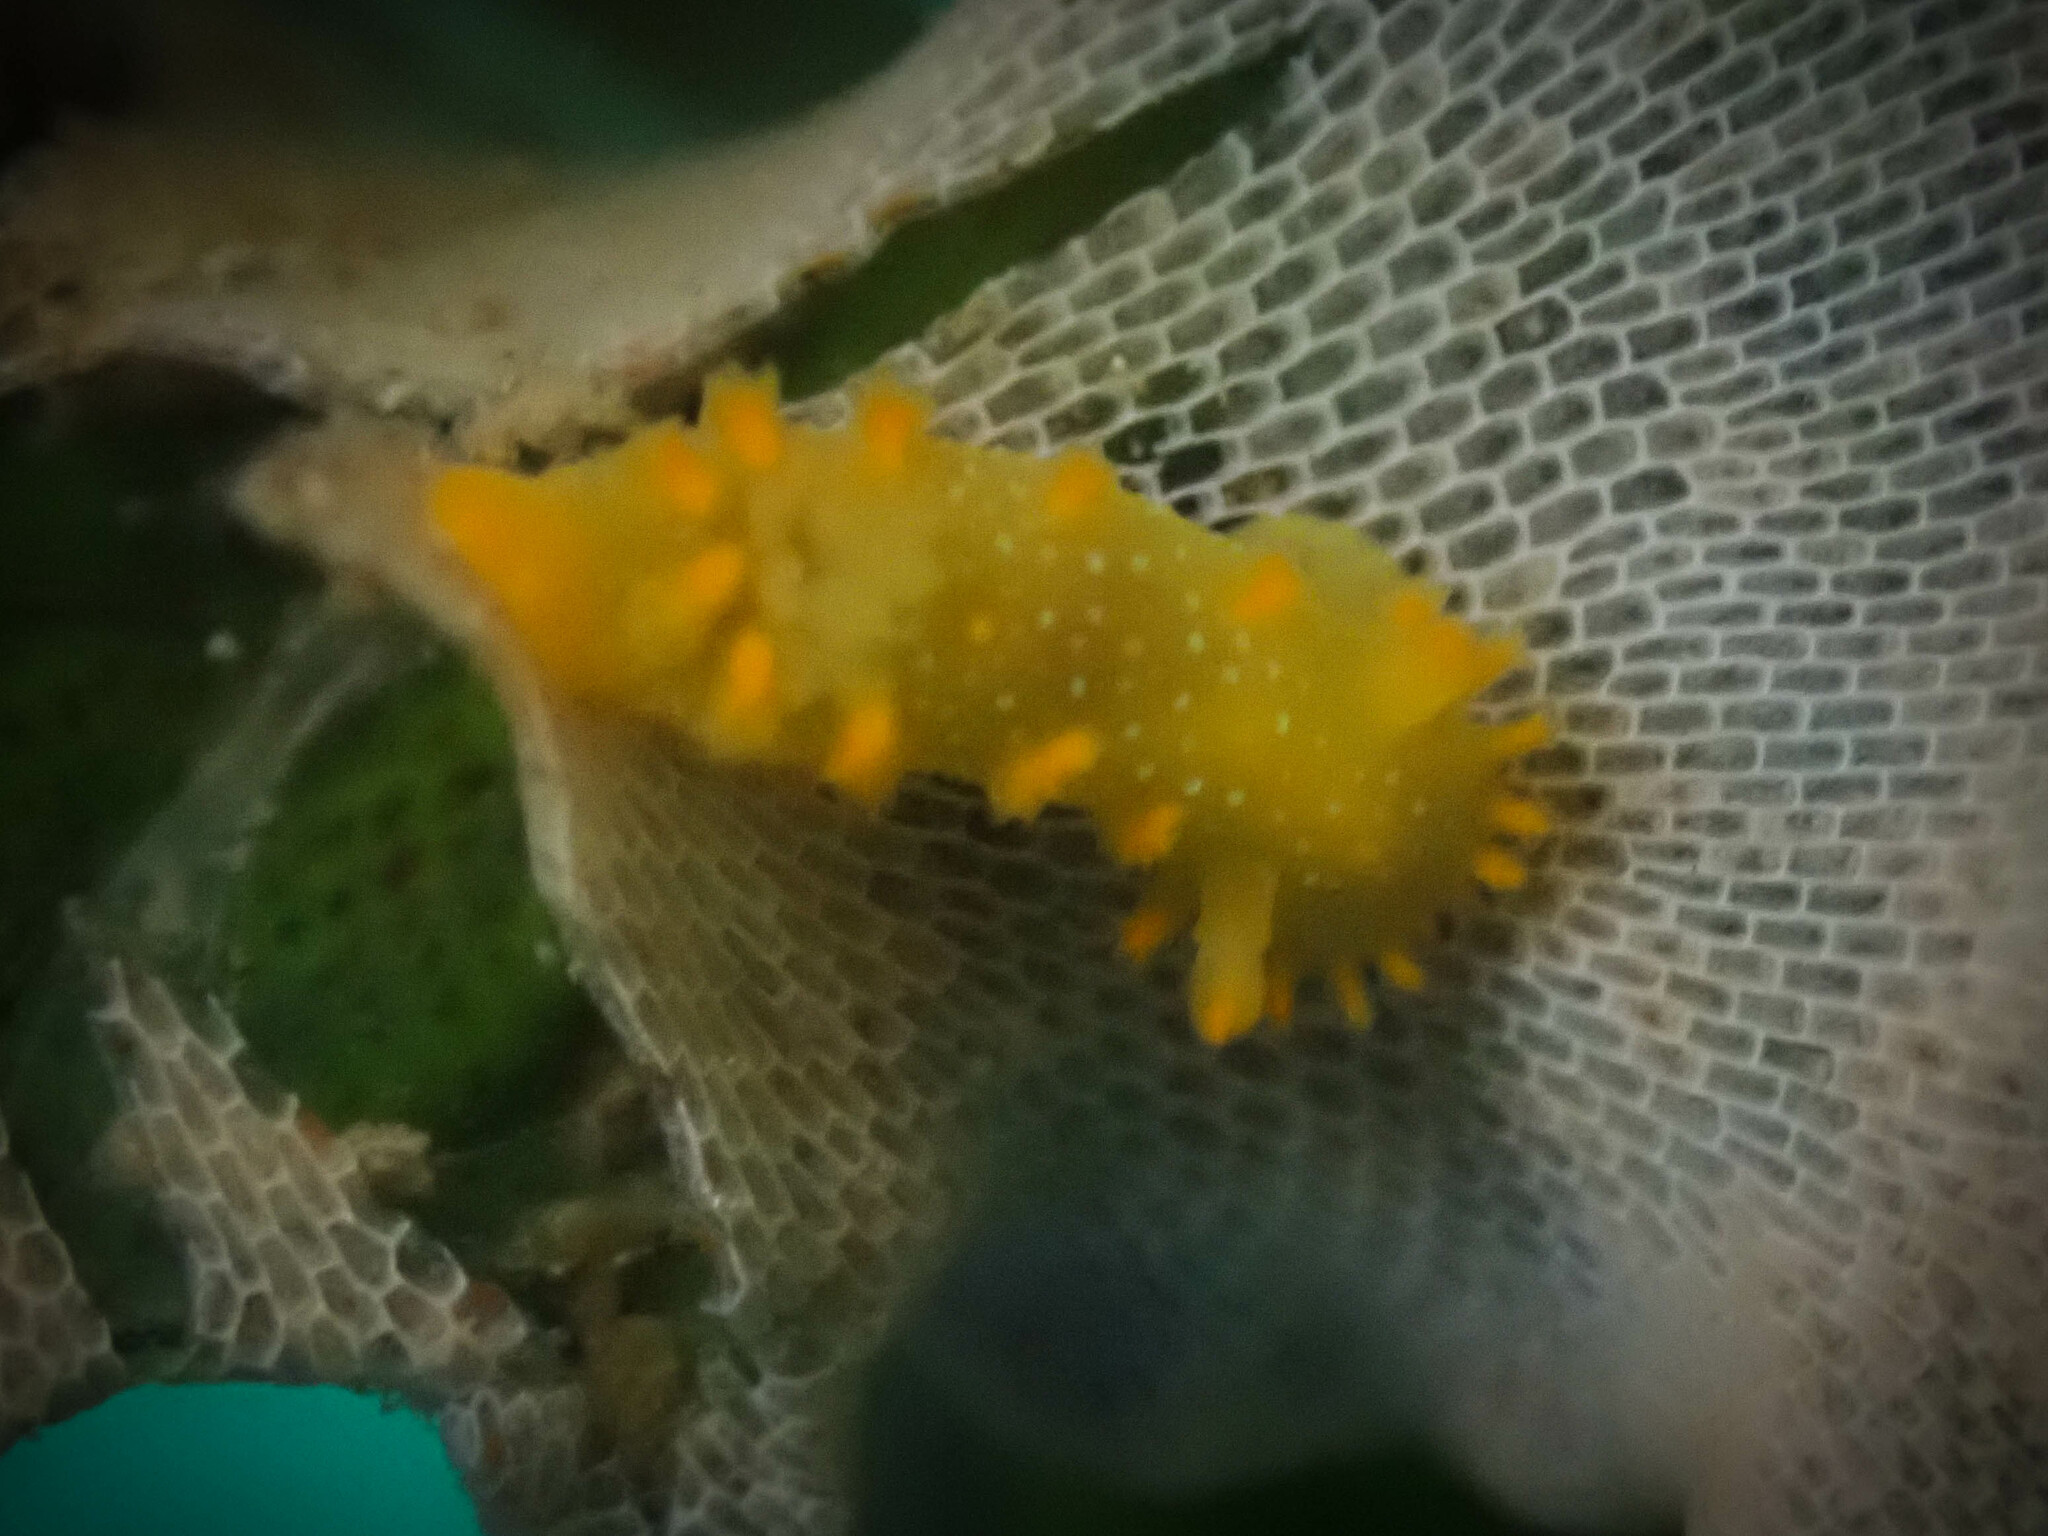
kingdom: Animalia
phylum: Mollusca
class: Gastropoda
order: Nudibranchia
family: Polyceridae
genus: Triopha
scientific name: Triopha maculata
